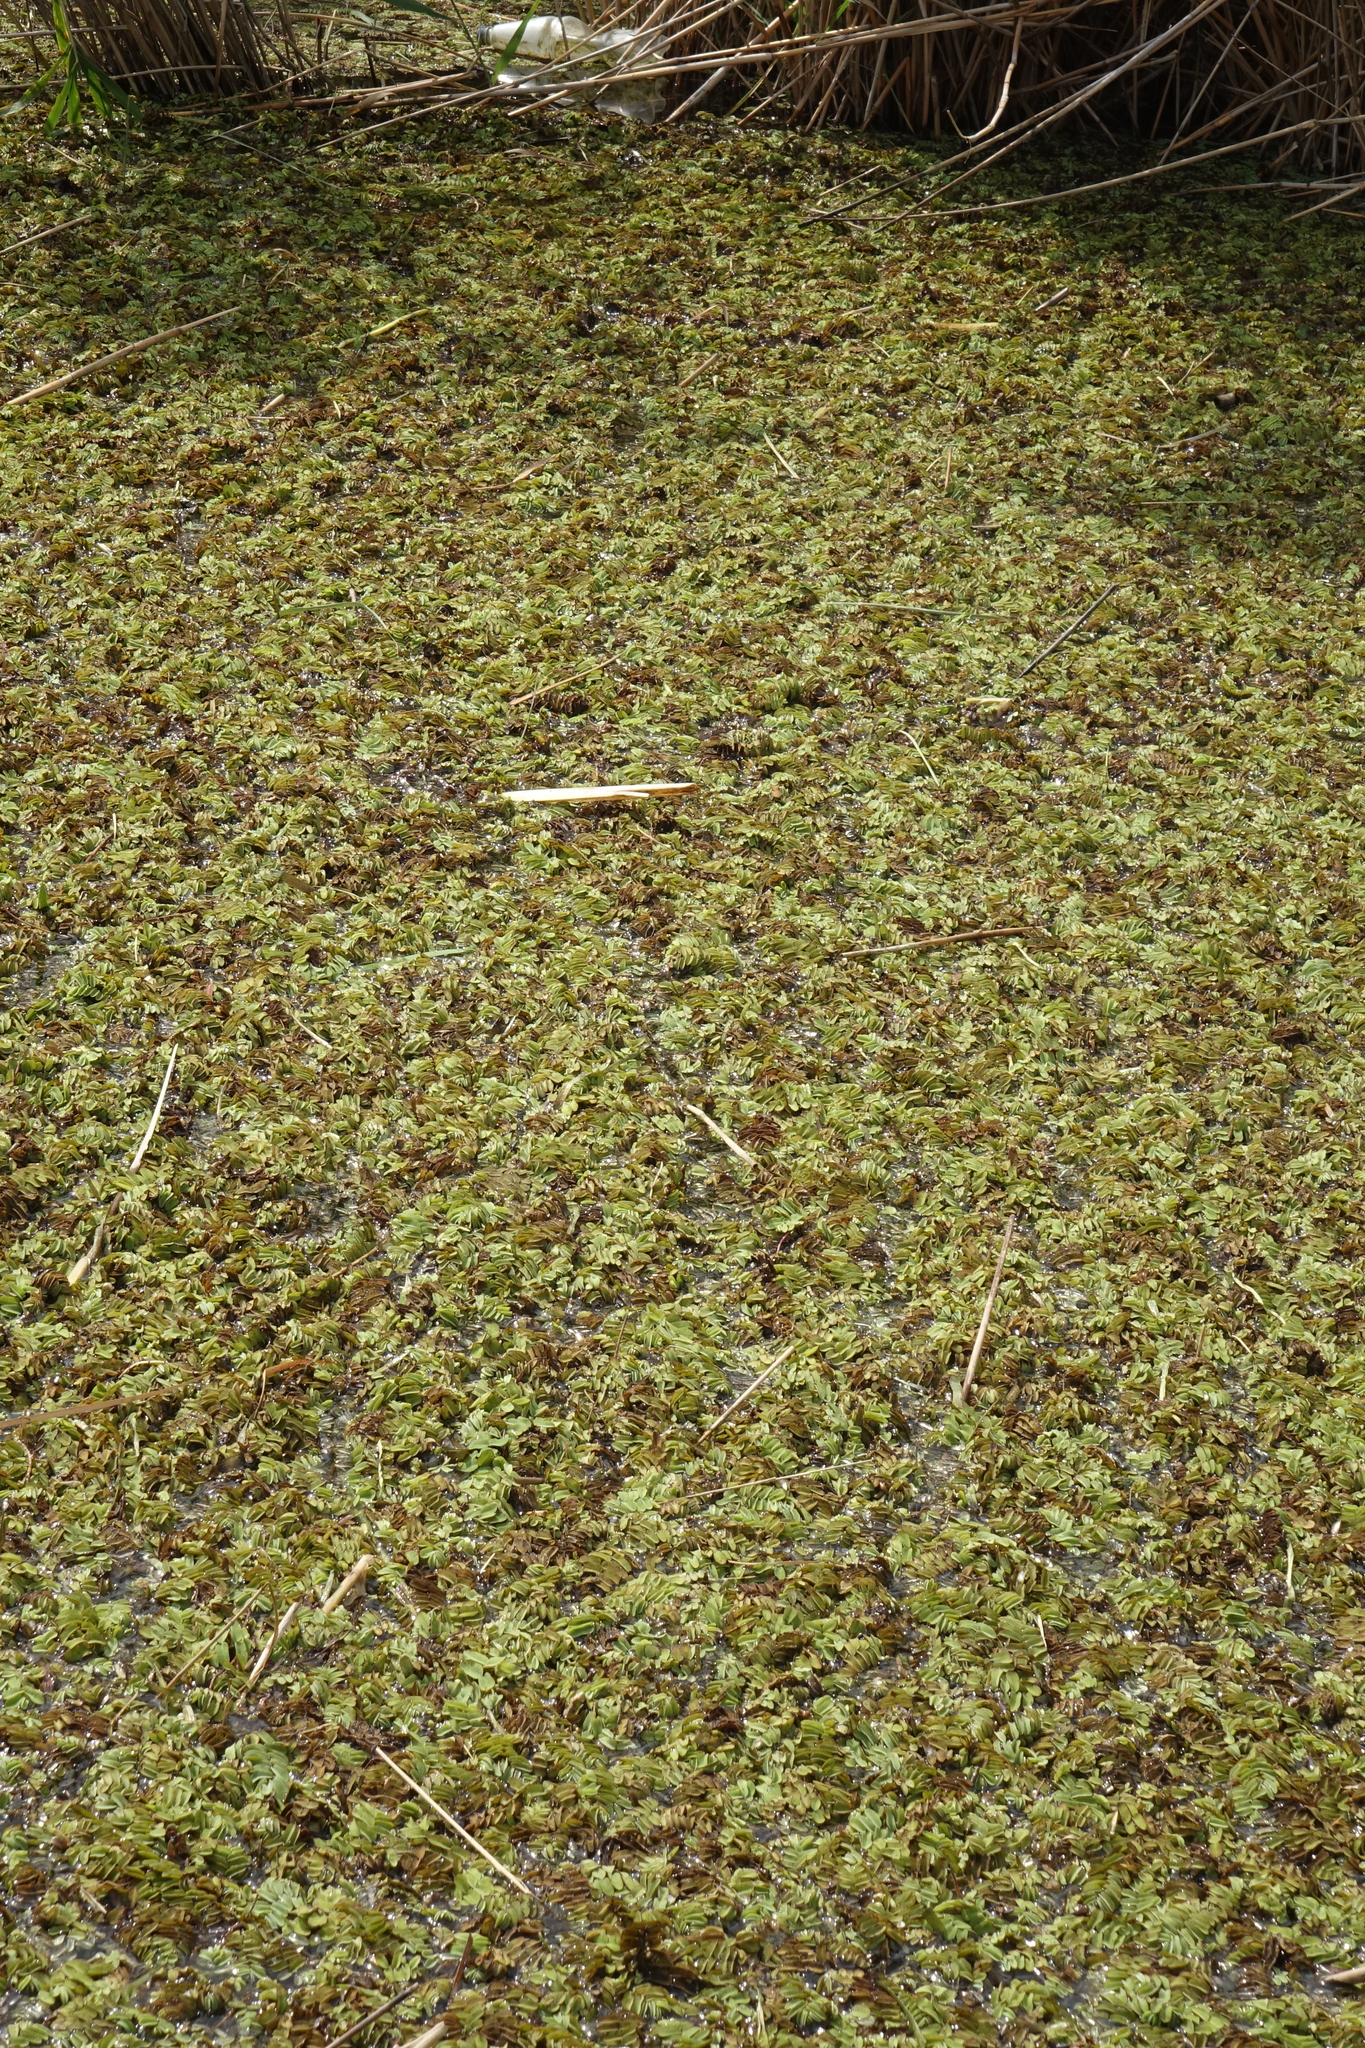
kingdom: Plantae
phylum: Tracheophyta
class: Polypodiopsida
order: Salviniales
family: Salviniaceae
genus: Salvinia
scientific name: Salvinia natans
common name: Floating fern
